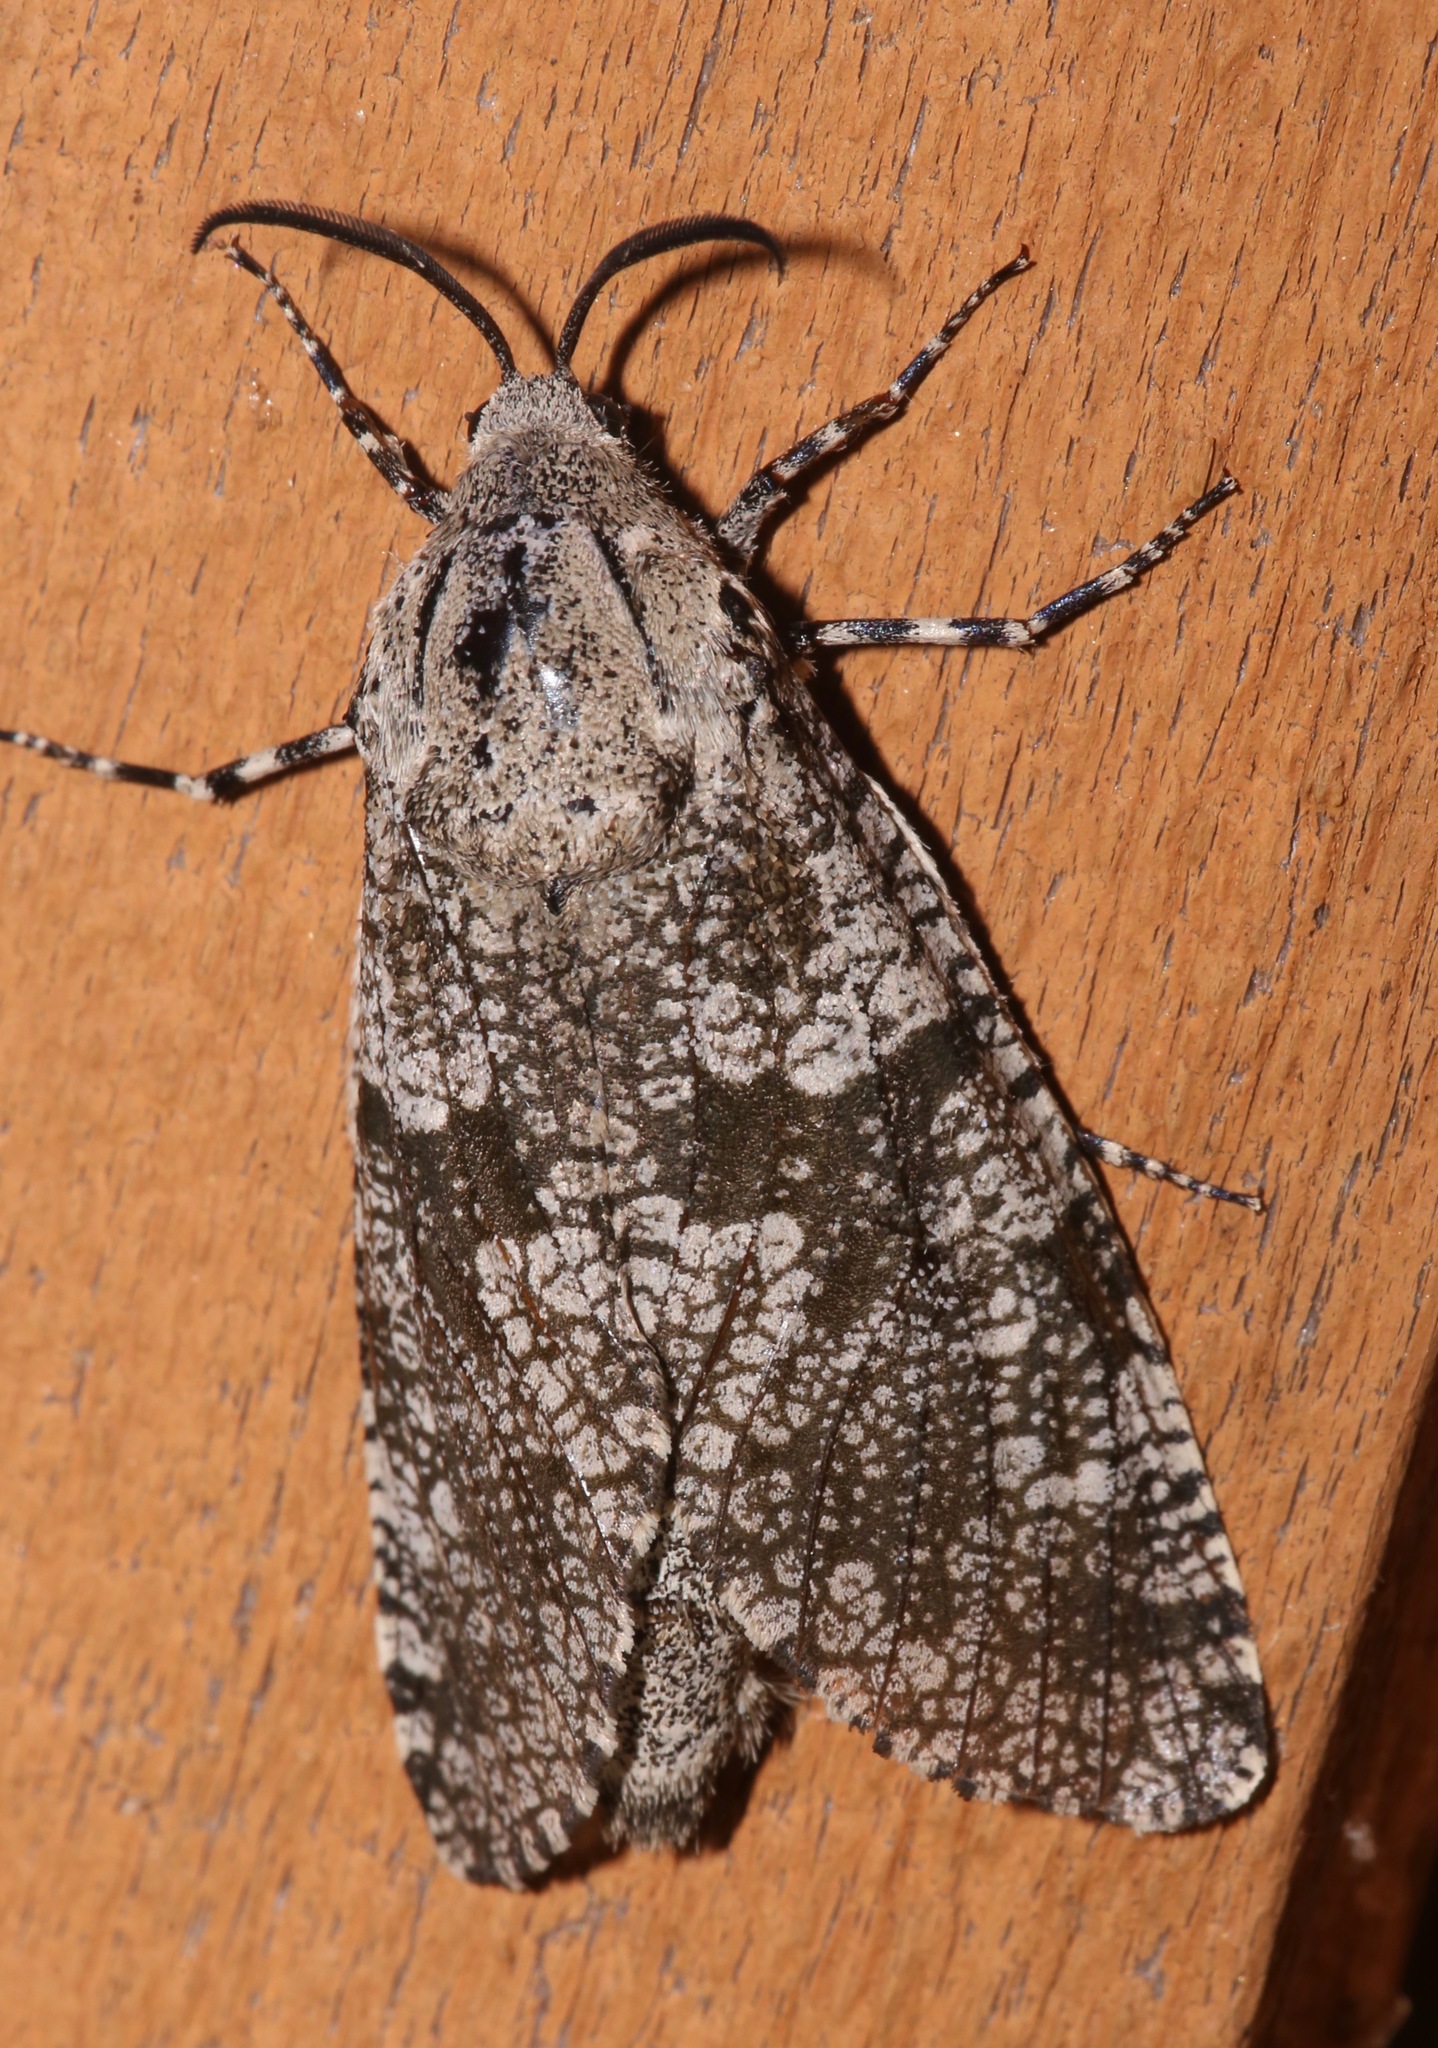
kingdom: Animalia
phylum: Arthropoda
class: Insecta
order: Lepidoptera
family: Cossidae
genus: Prionoxystus
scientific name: Prionoxystus robiniae
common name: Carpenterworm
